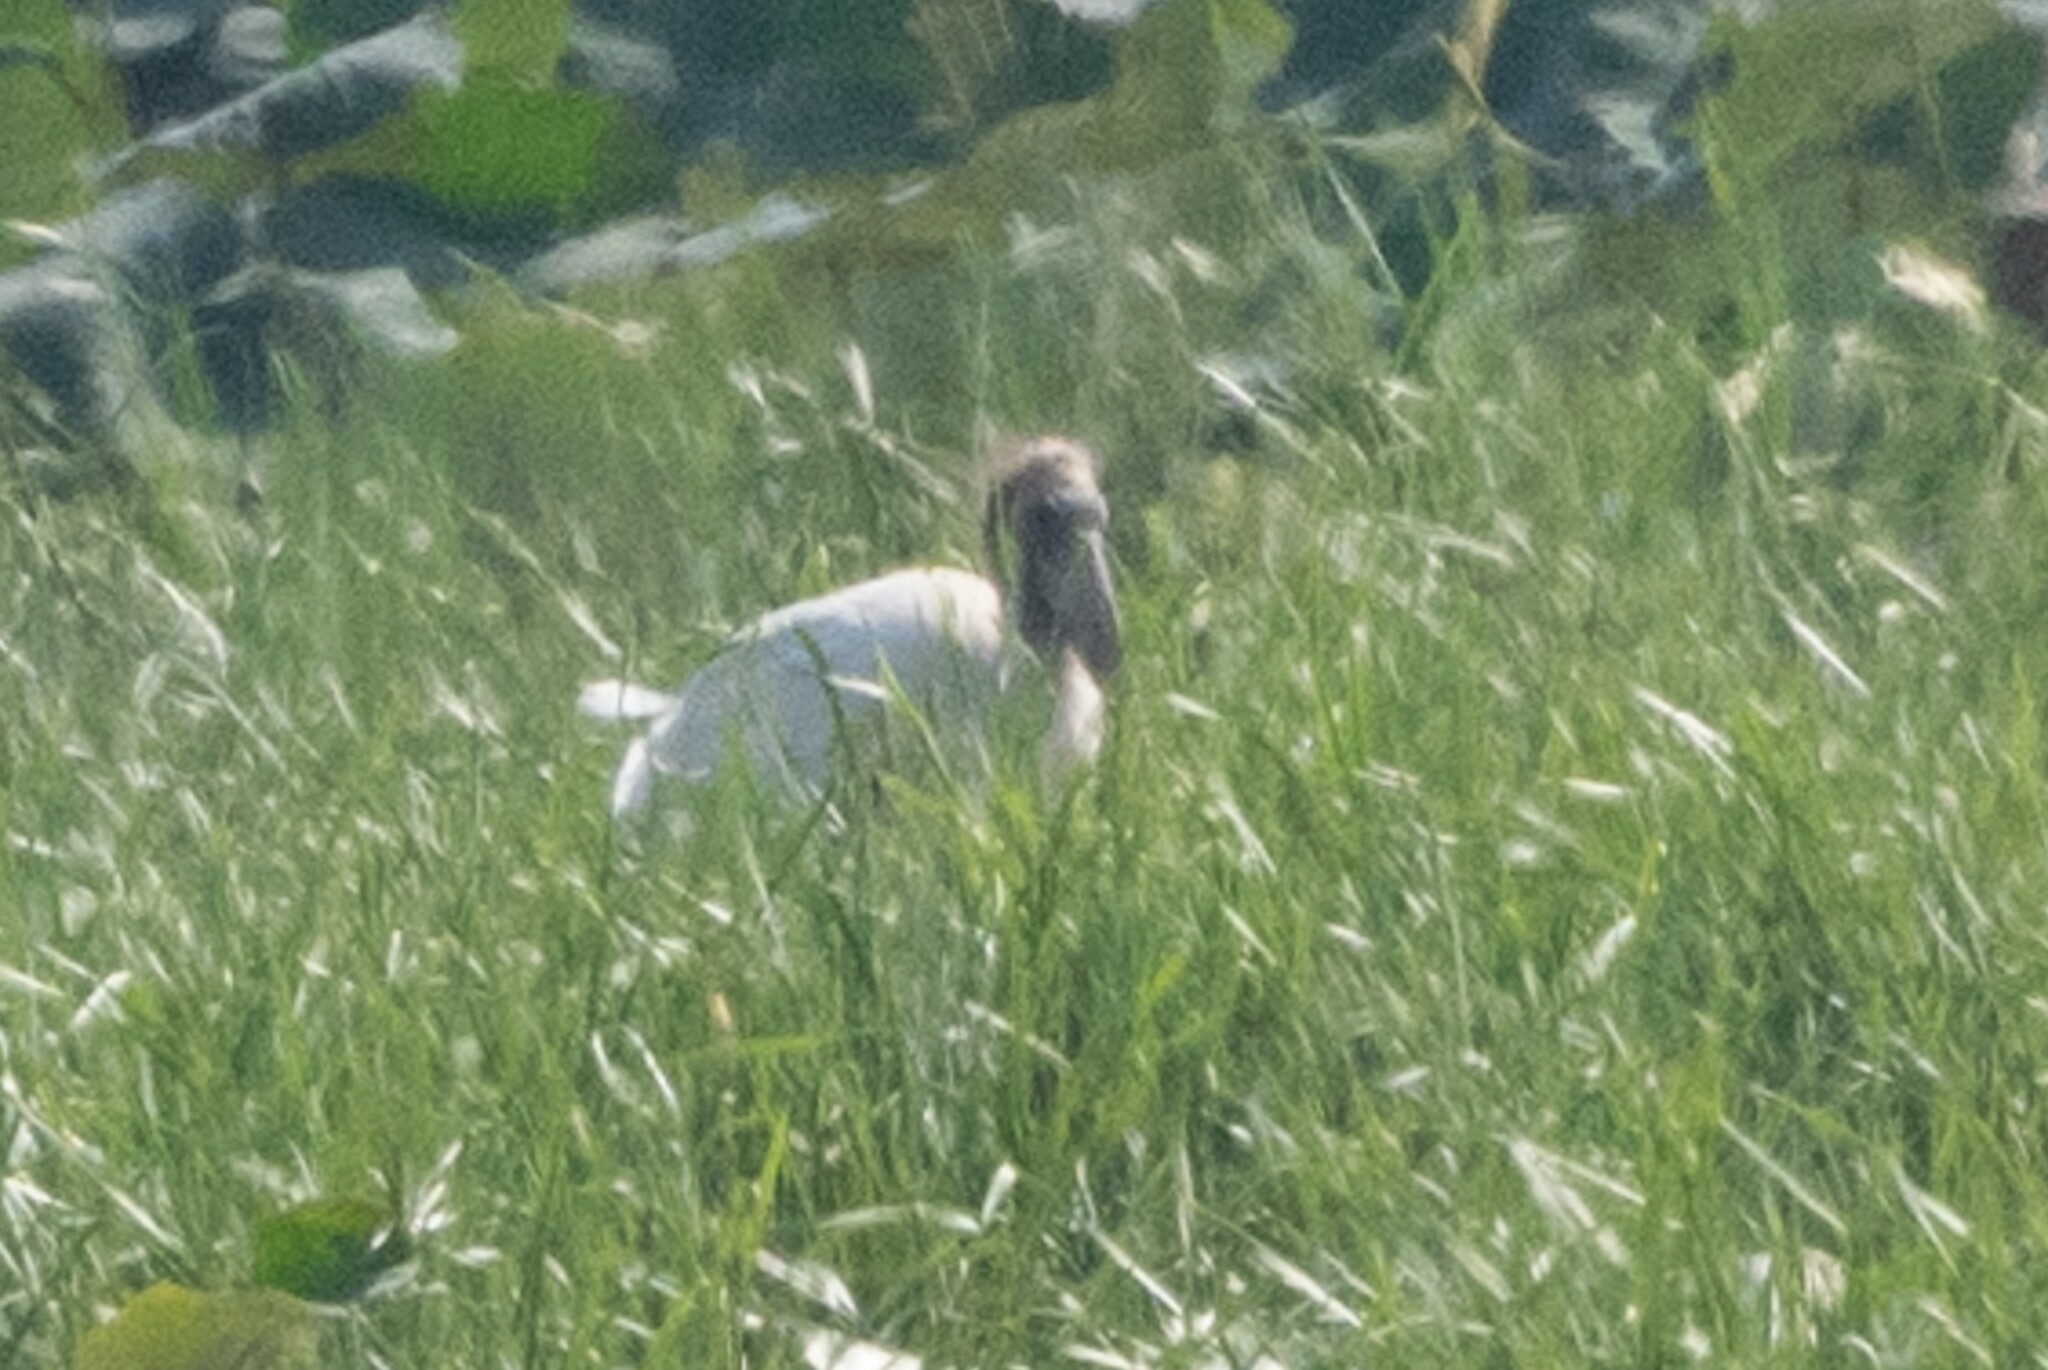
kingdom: Animalia
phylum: Chordata
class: Aves
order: Ciconiiformes
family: Ciconiidae
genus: Mycteria
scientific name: Mycteria americana
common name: Wood stork
